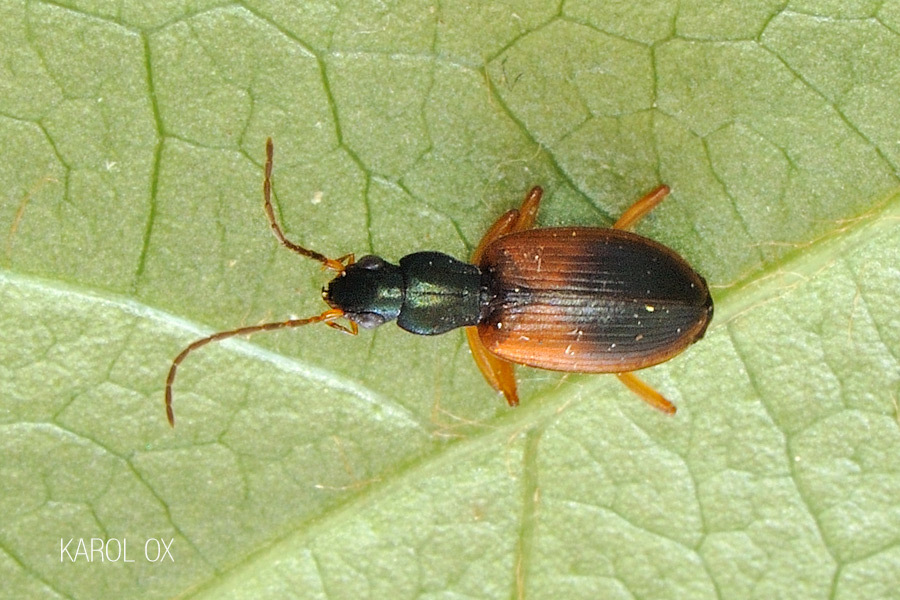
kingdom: Animalia
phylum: Arthropoda
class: Insecta
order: Coleoptera
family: Carabidae
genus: Anchomenus
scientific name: Anchomenus dorsalis
